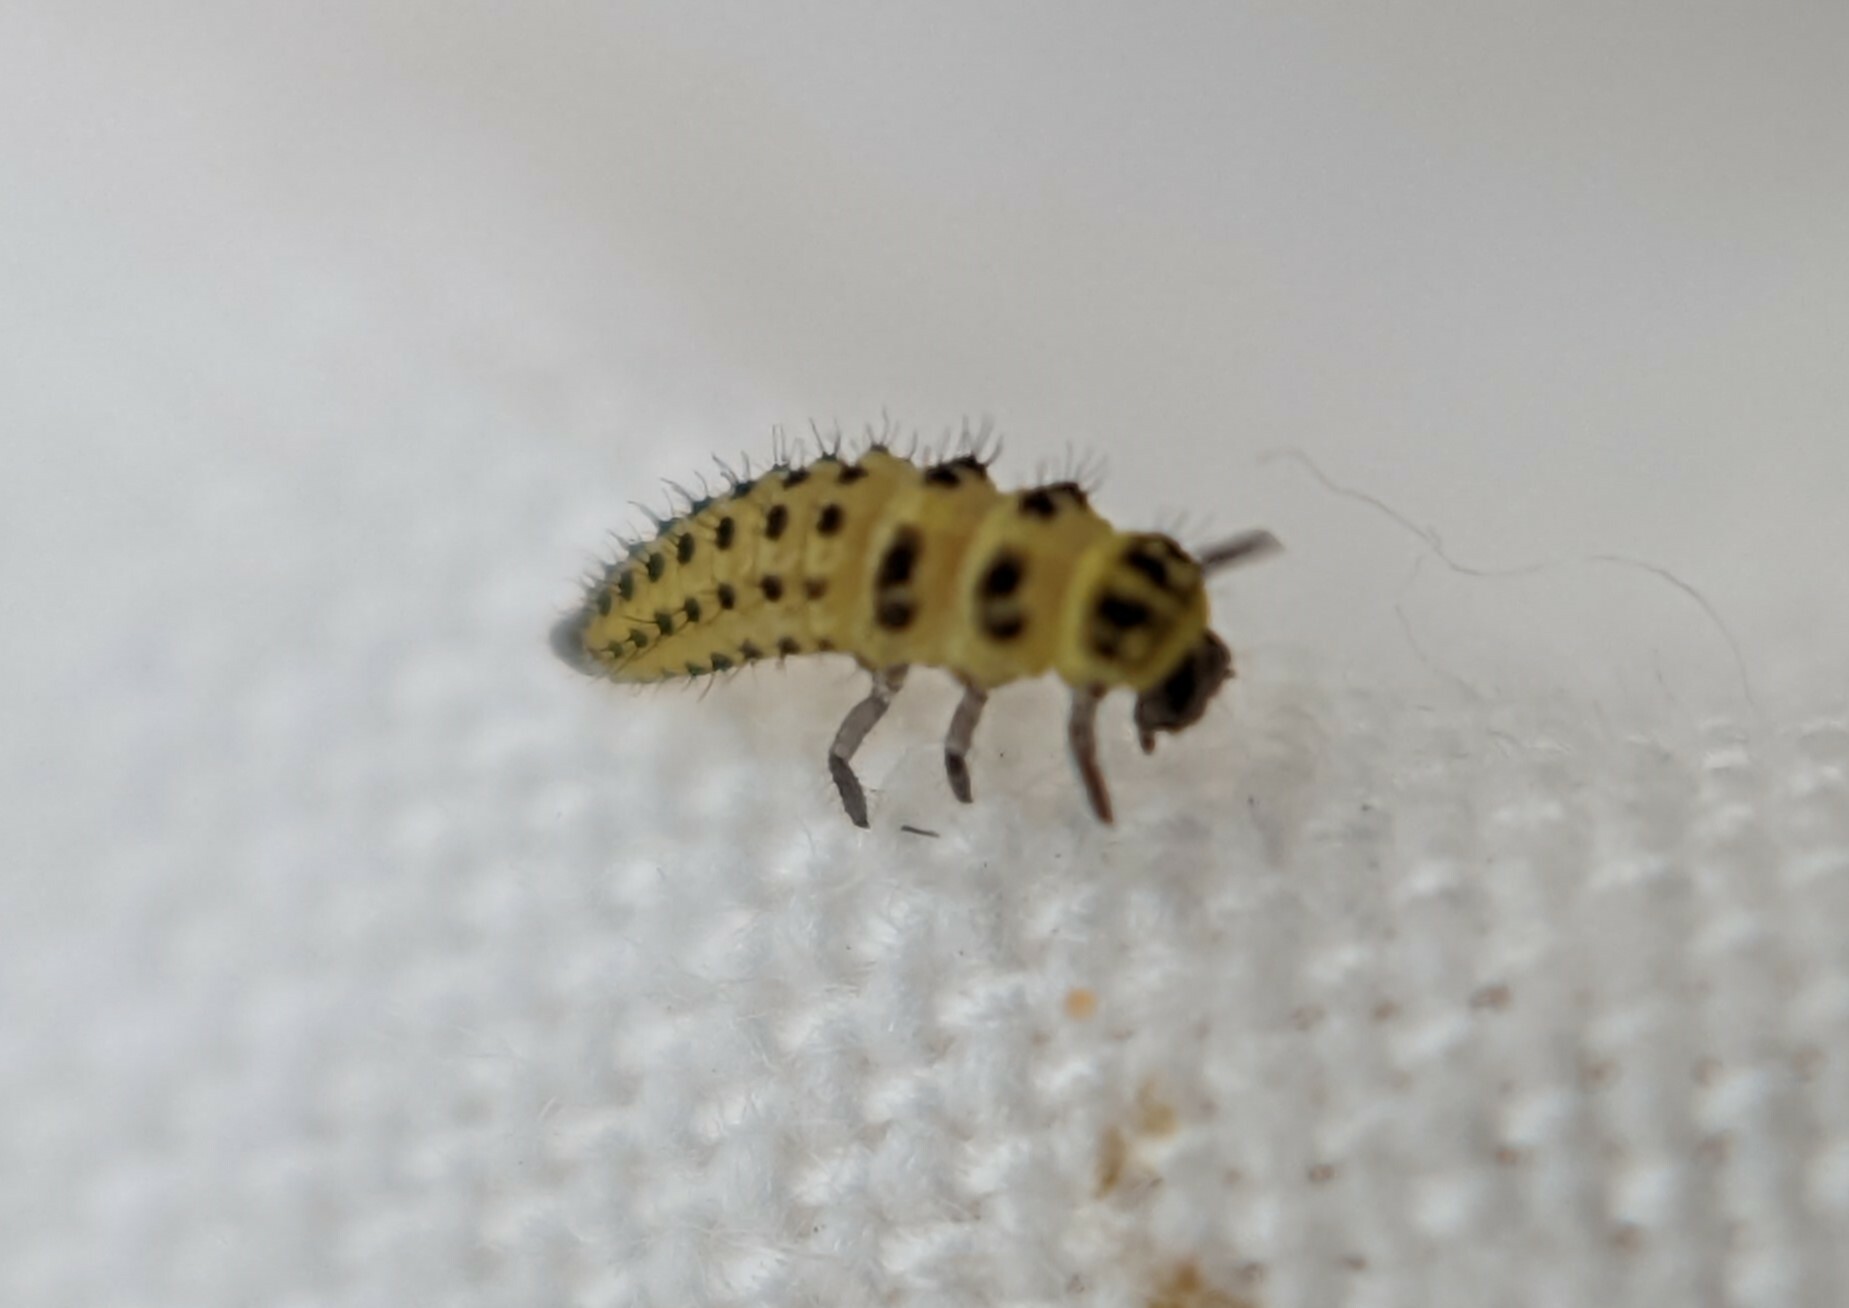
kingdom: Animalia
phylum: Arthropoda
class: Insecta
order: Coleoptera
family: Coccinellidae
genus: Psyllobora
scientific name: Psyllobora vigintiduopunctata
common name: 22-spot ladybird
